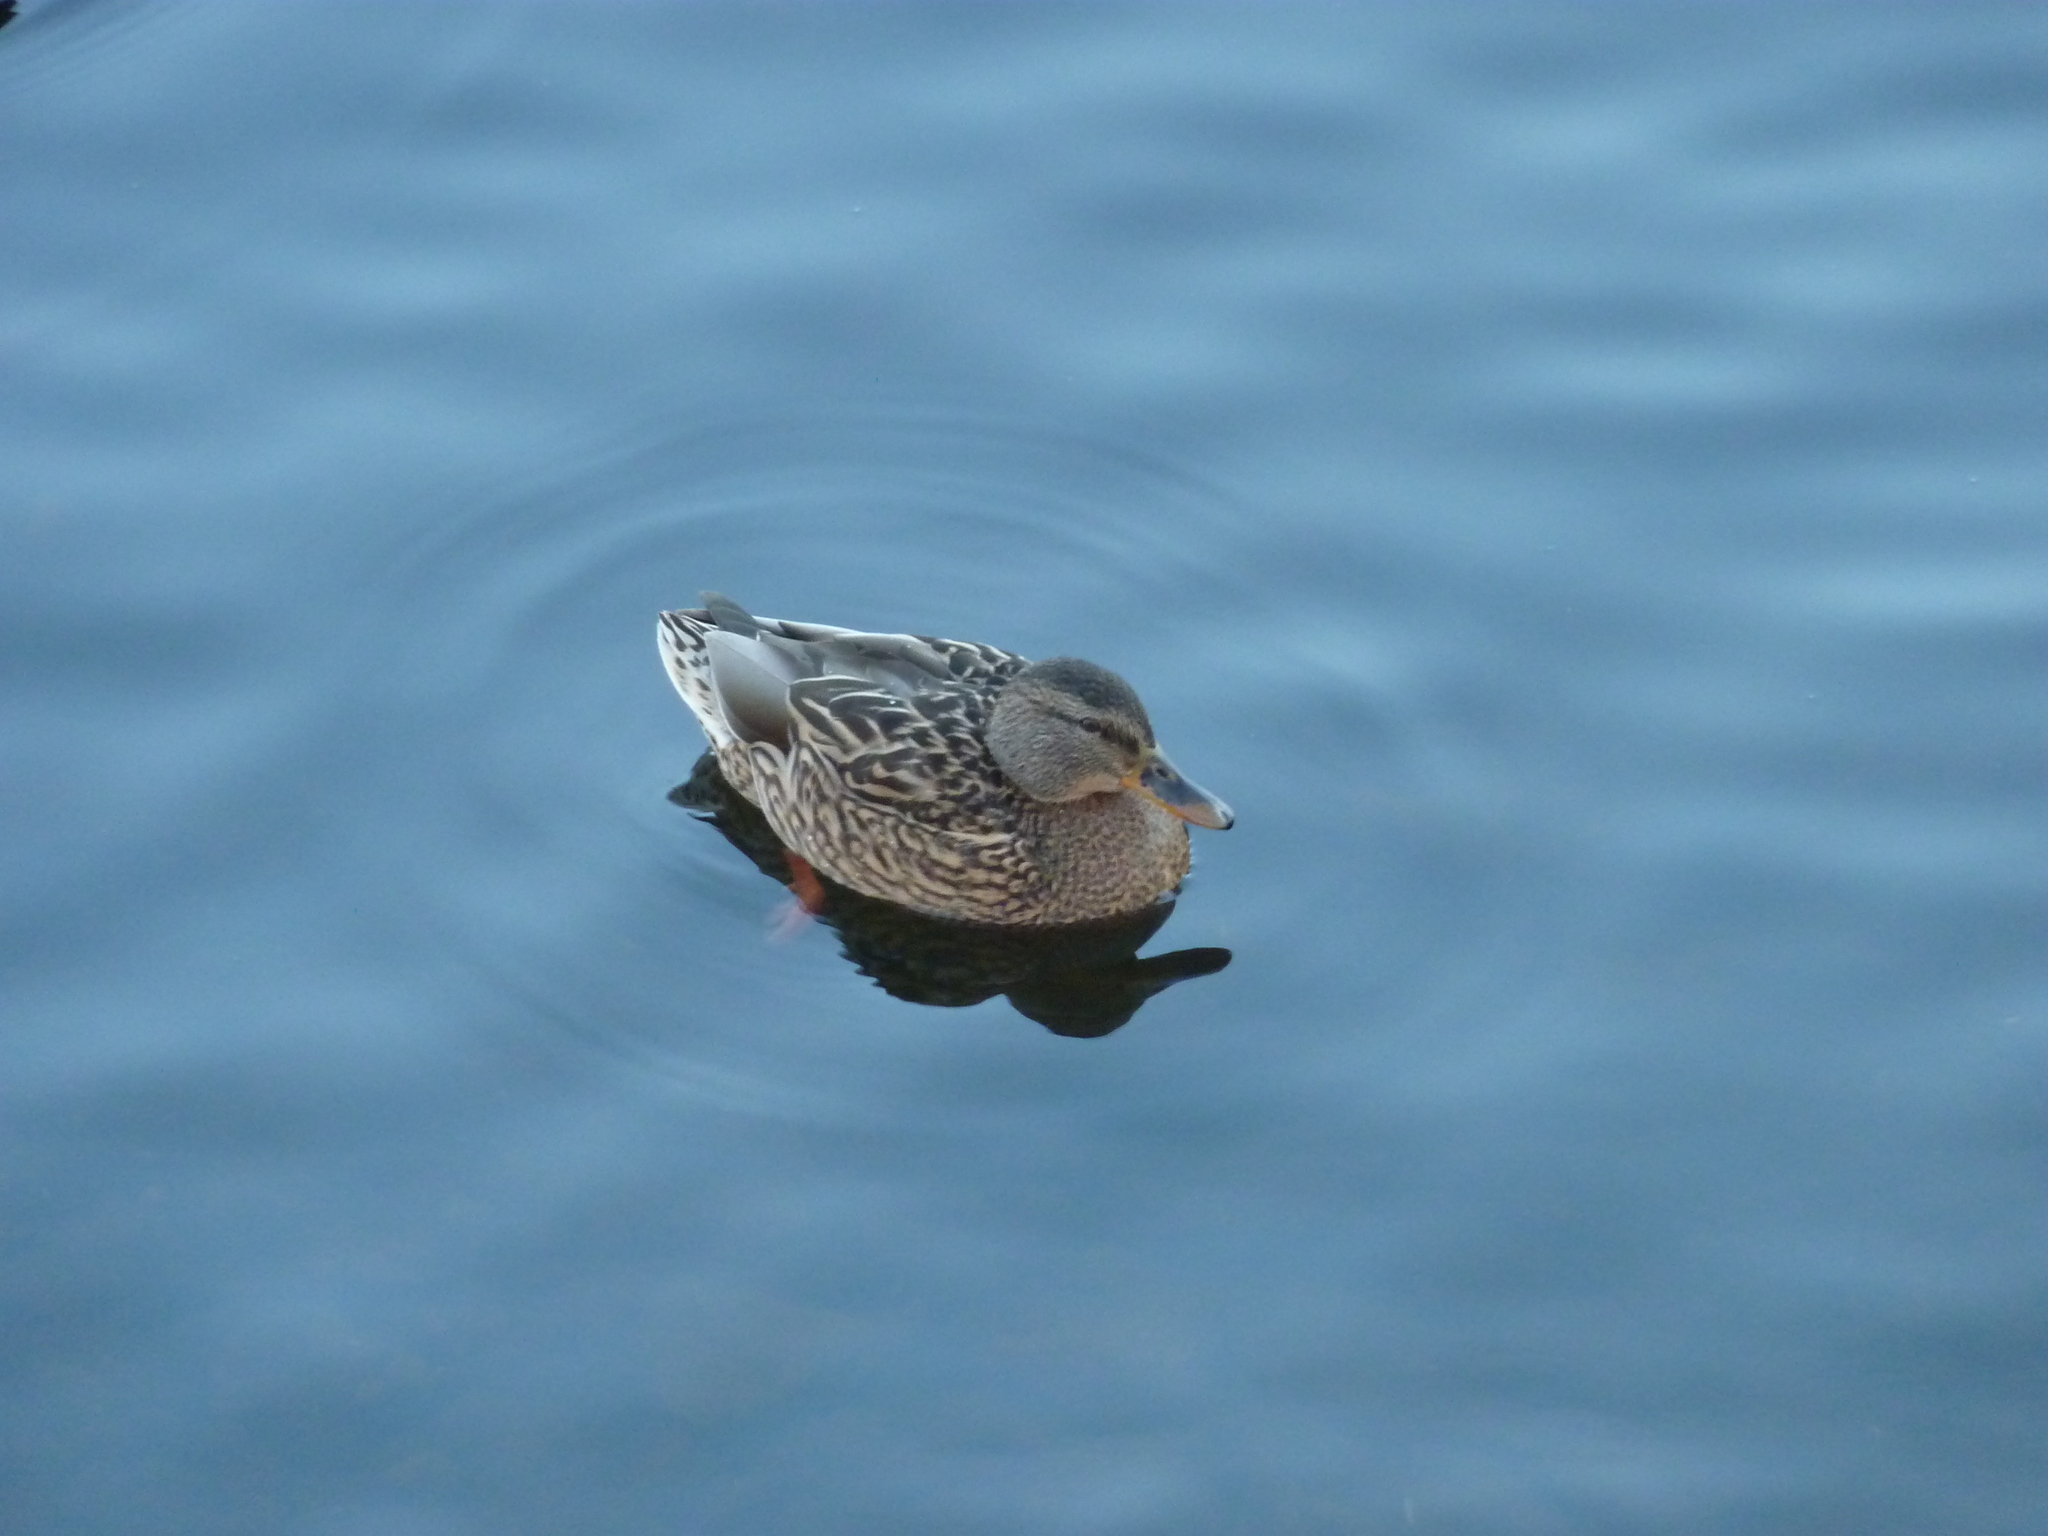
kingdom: Animalia
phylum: Chordata
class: Aves
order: Anseriformes
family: Anatidae
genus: Anas
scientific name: Anas platyrhynchos
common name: Mallard
